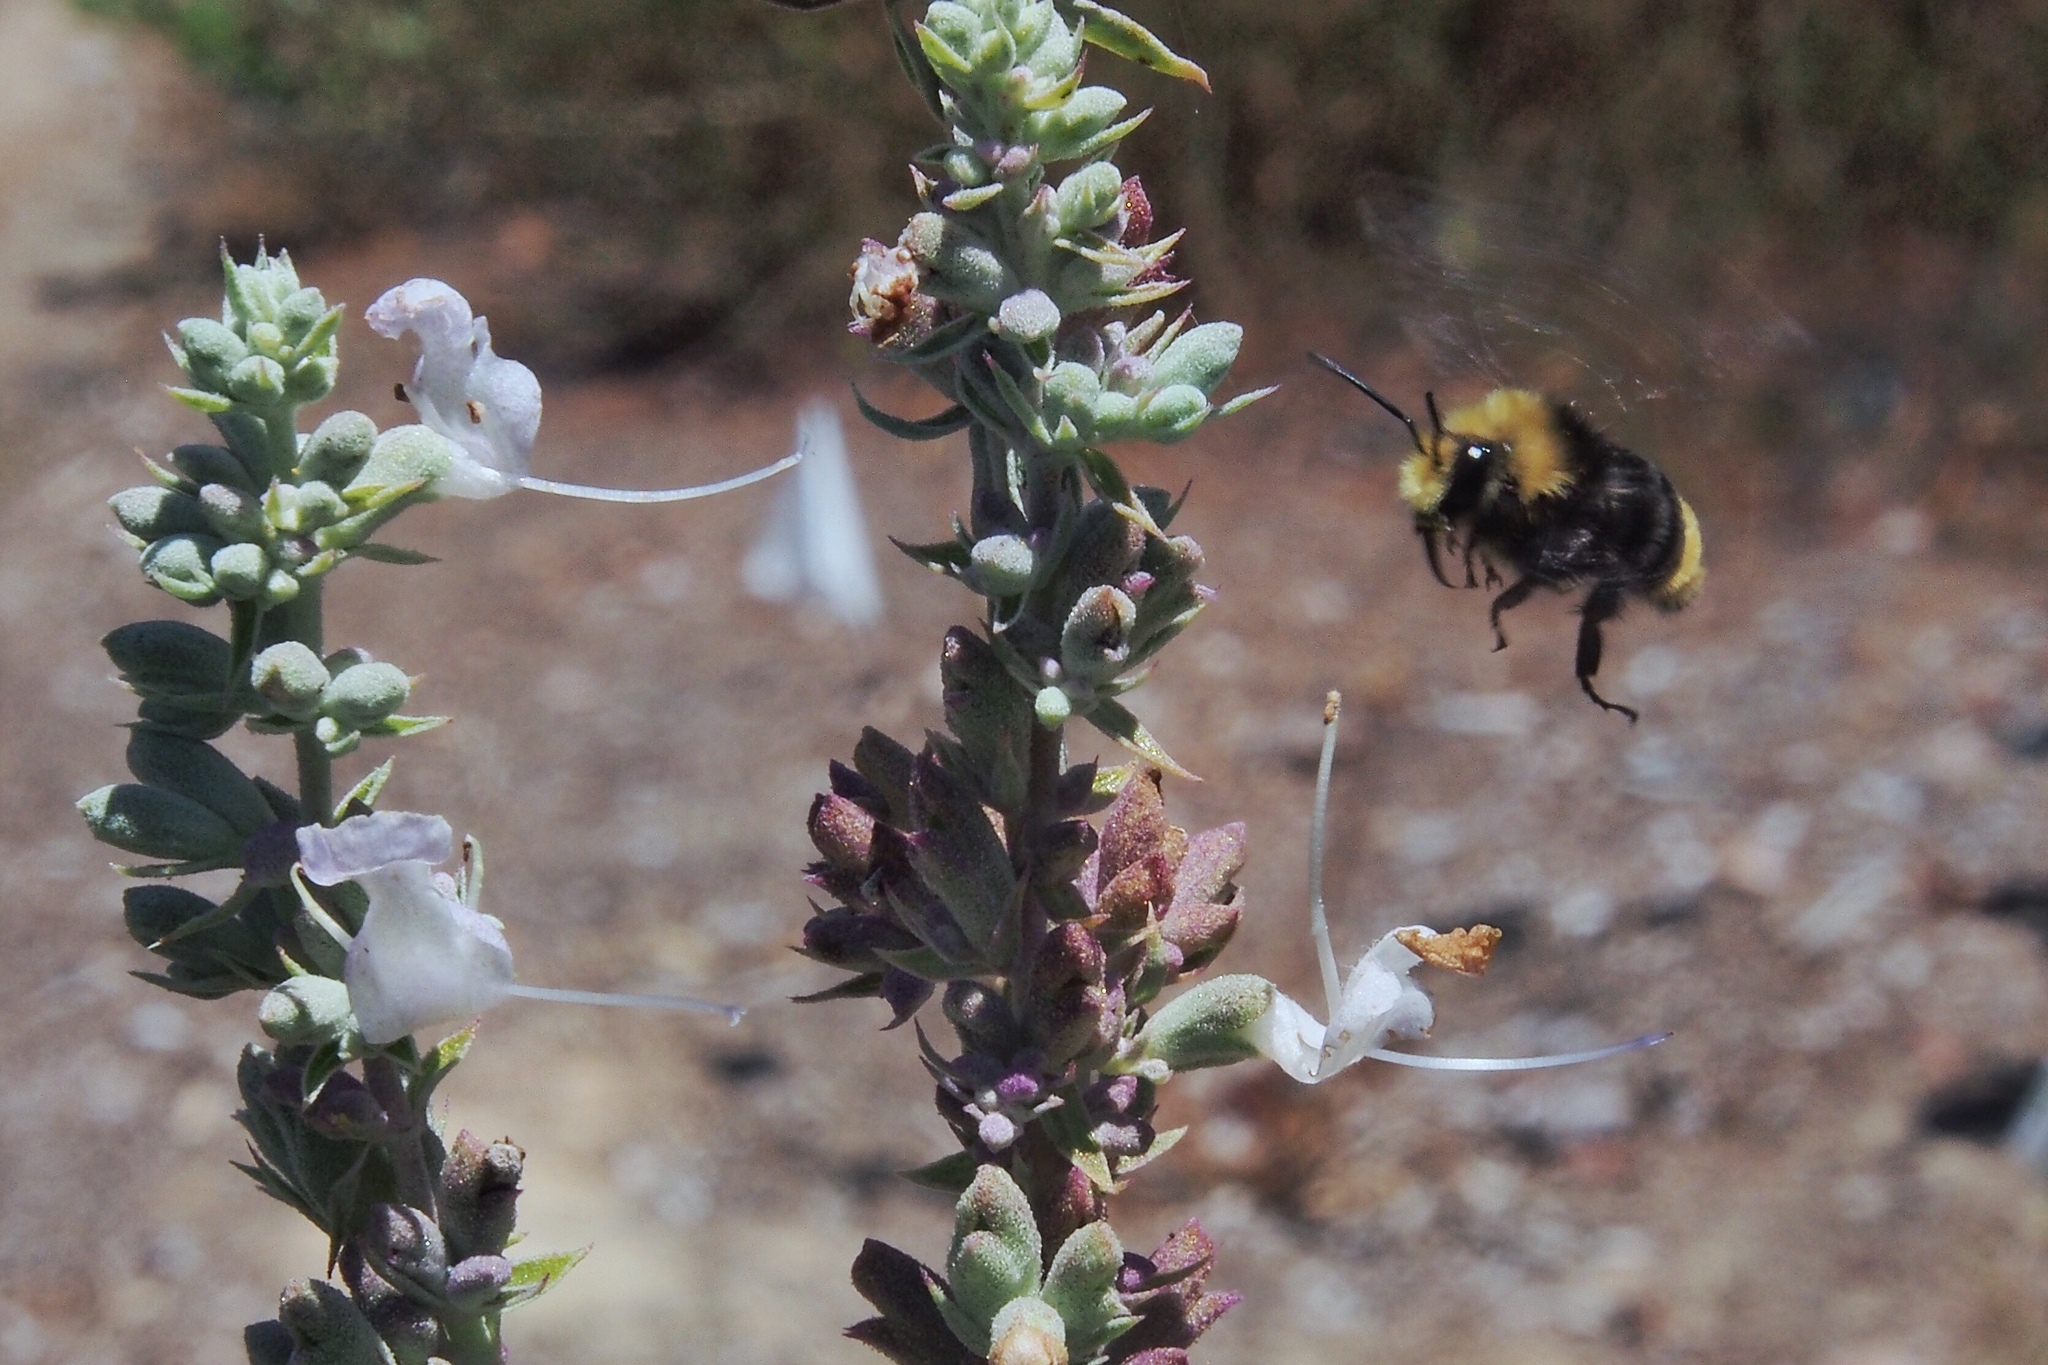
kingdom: Animalia
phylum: Arthropoda
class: Insecta
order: Hymenoptera
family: Apidae
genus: Bombus
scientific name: Bombus vosnesenskii
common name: Vosnesensky bumble bee
